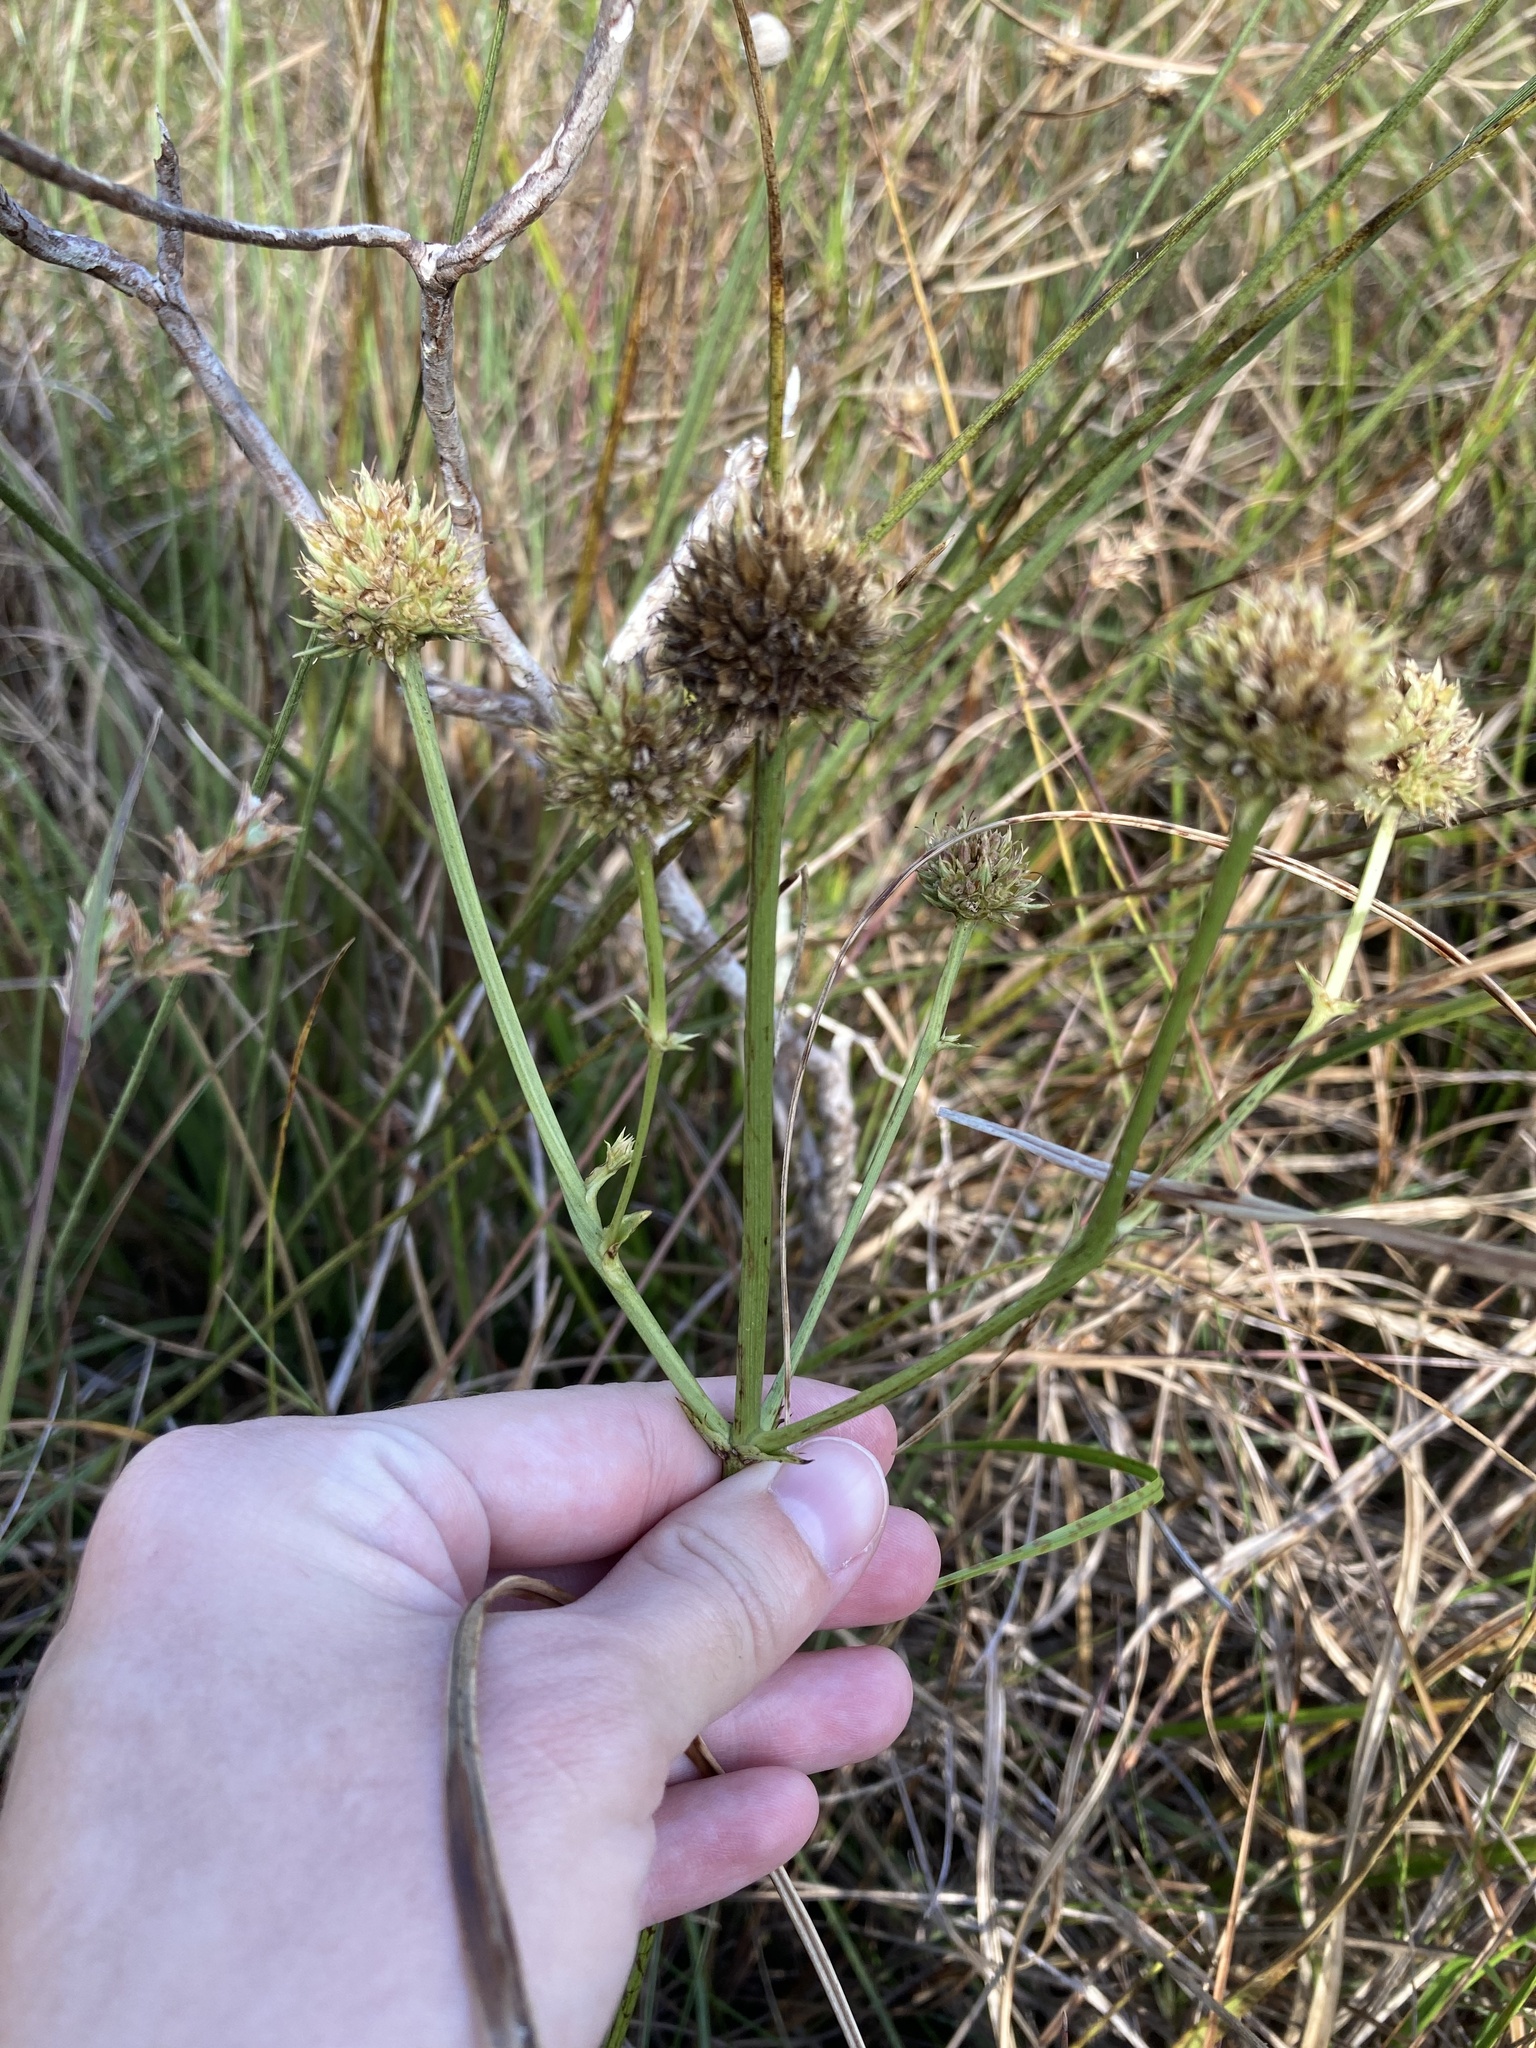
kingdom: Plantae
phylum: Tracheophyta
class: Magnoliopsida
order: Apiales
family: Apiaceae
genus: Eryngium
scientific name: Eryngium yuccifolium
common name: Button eryngo
